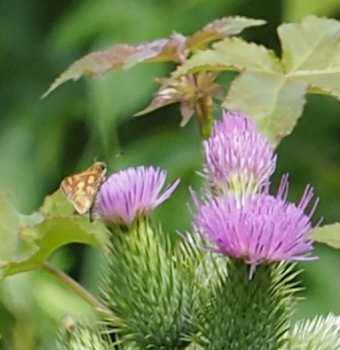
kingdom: Animalia
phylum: Arthropoda
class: Insecta
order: Lepidoptera
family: Hesperiidae
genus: Polites
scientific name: Polites coras
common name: Peck's skipper
